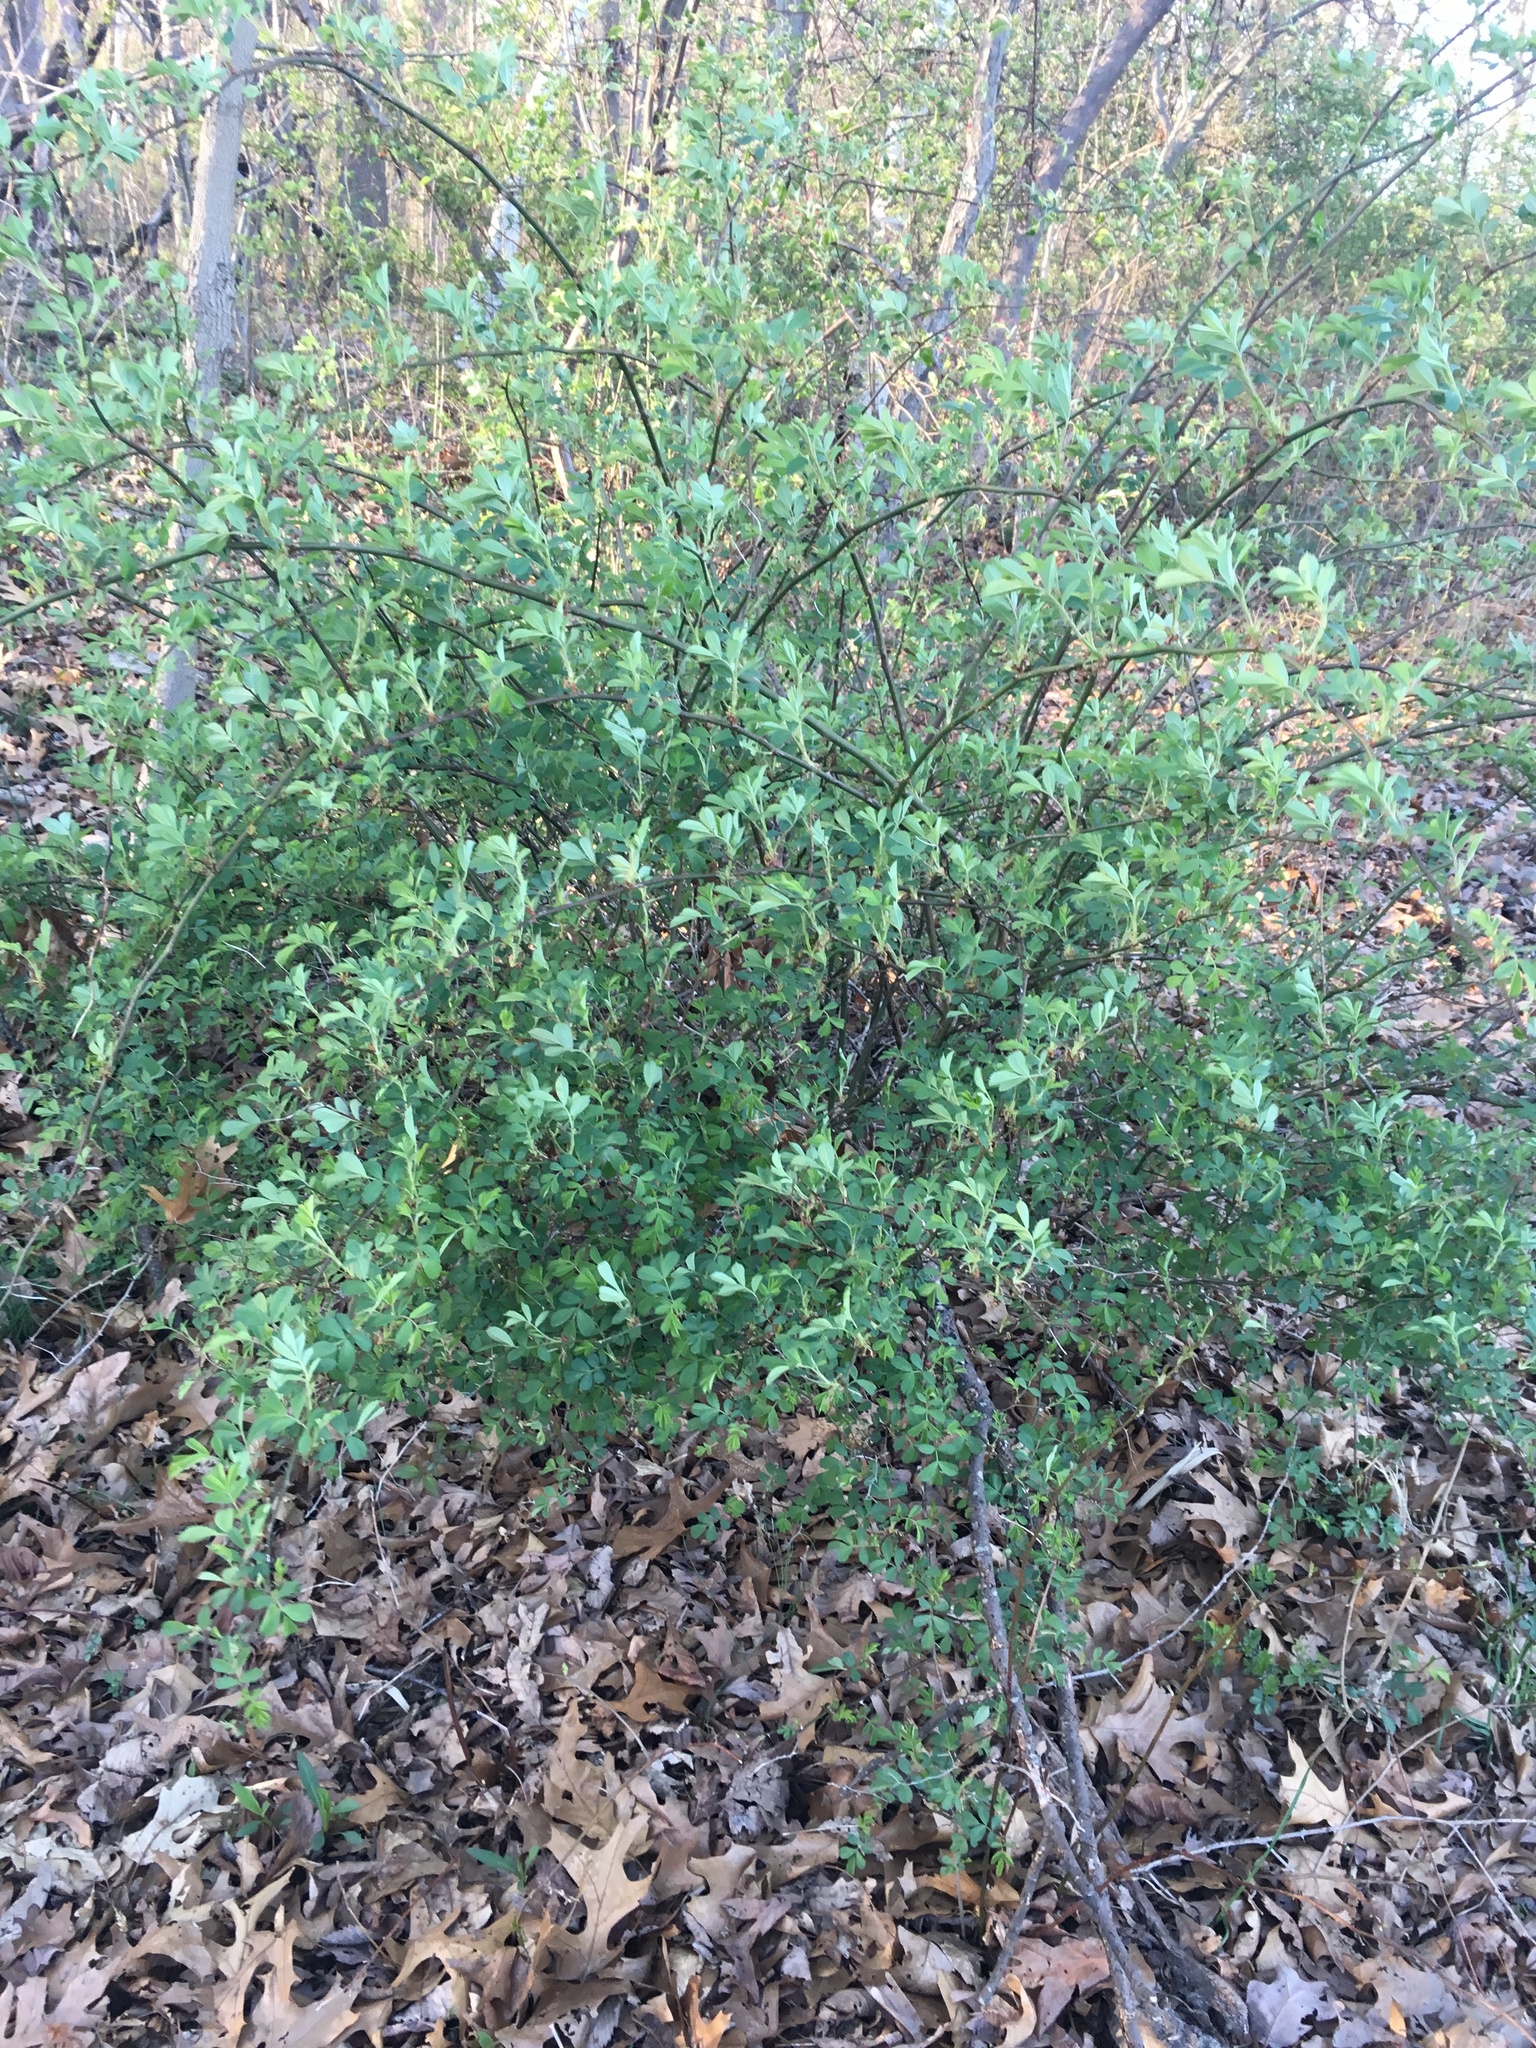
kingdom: Plantae
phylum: Tracheophyta
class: Magnoliopsida
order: Rosales
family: Rosaceae
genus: Rosa
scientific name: Rosa multiflora
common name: Multiflora rose
